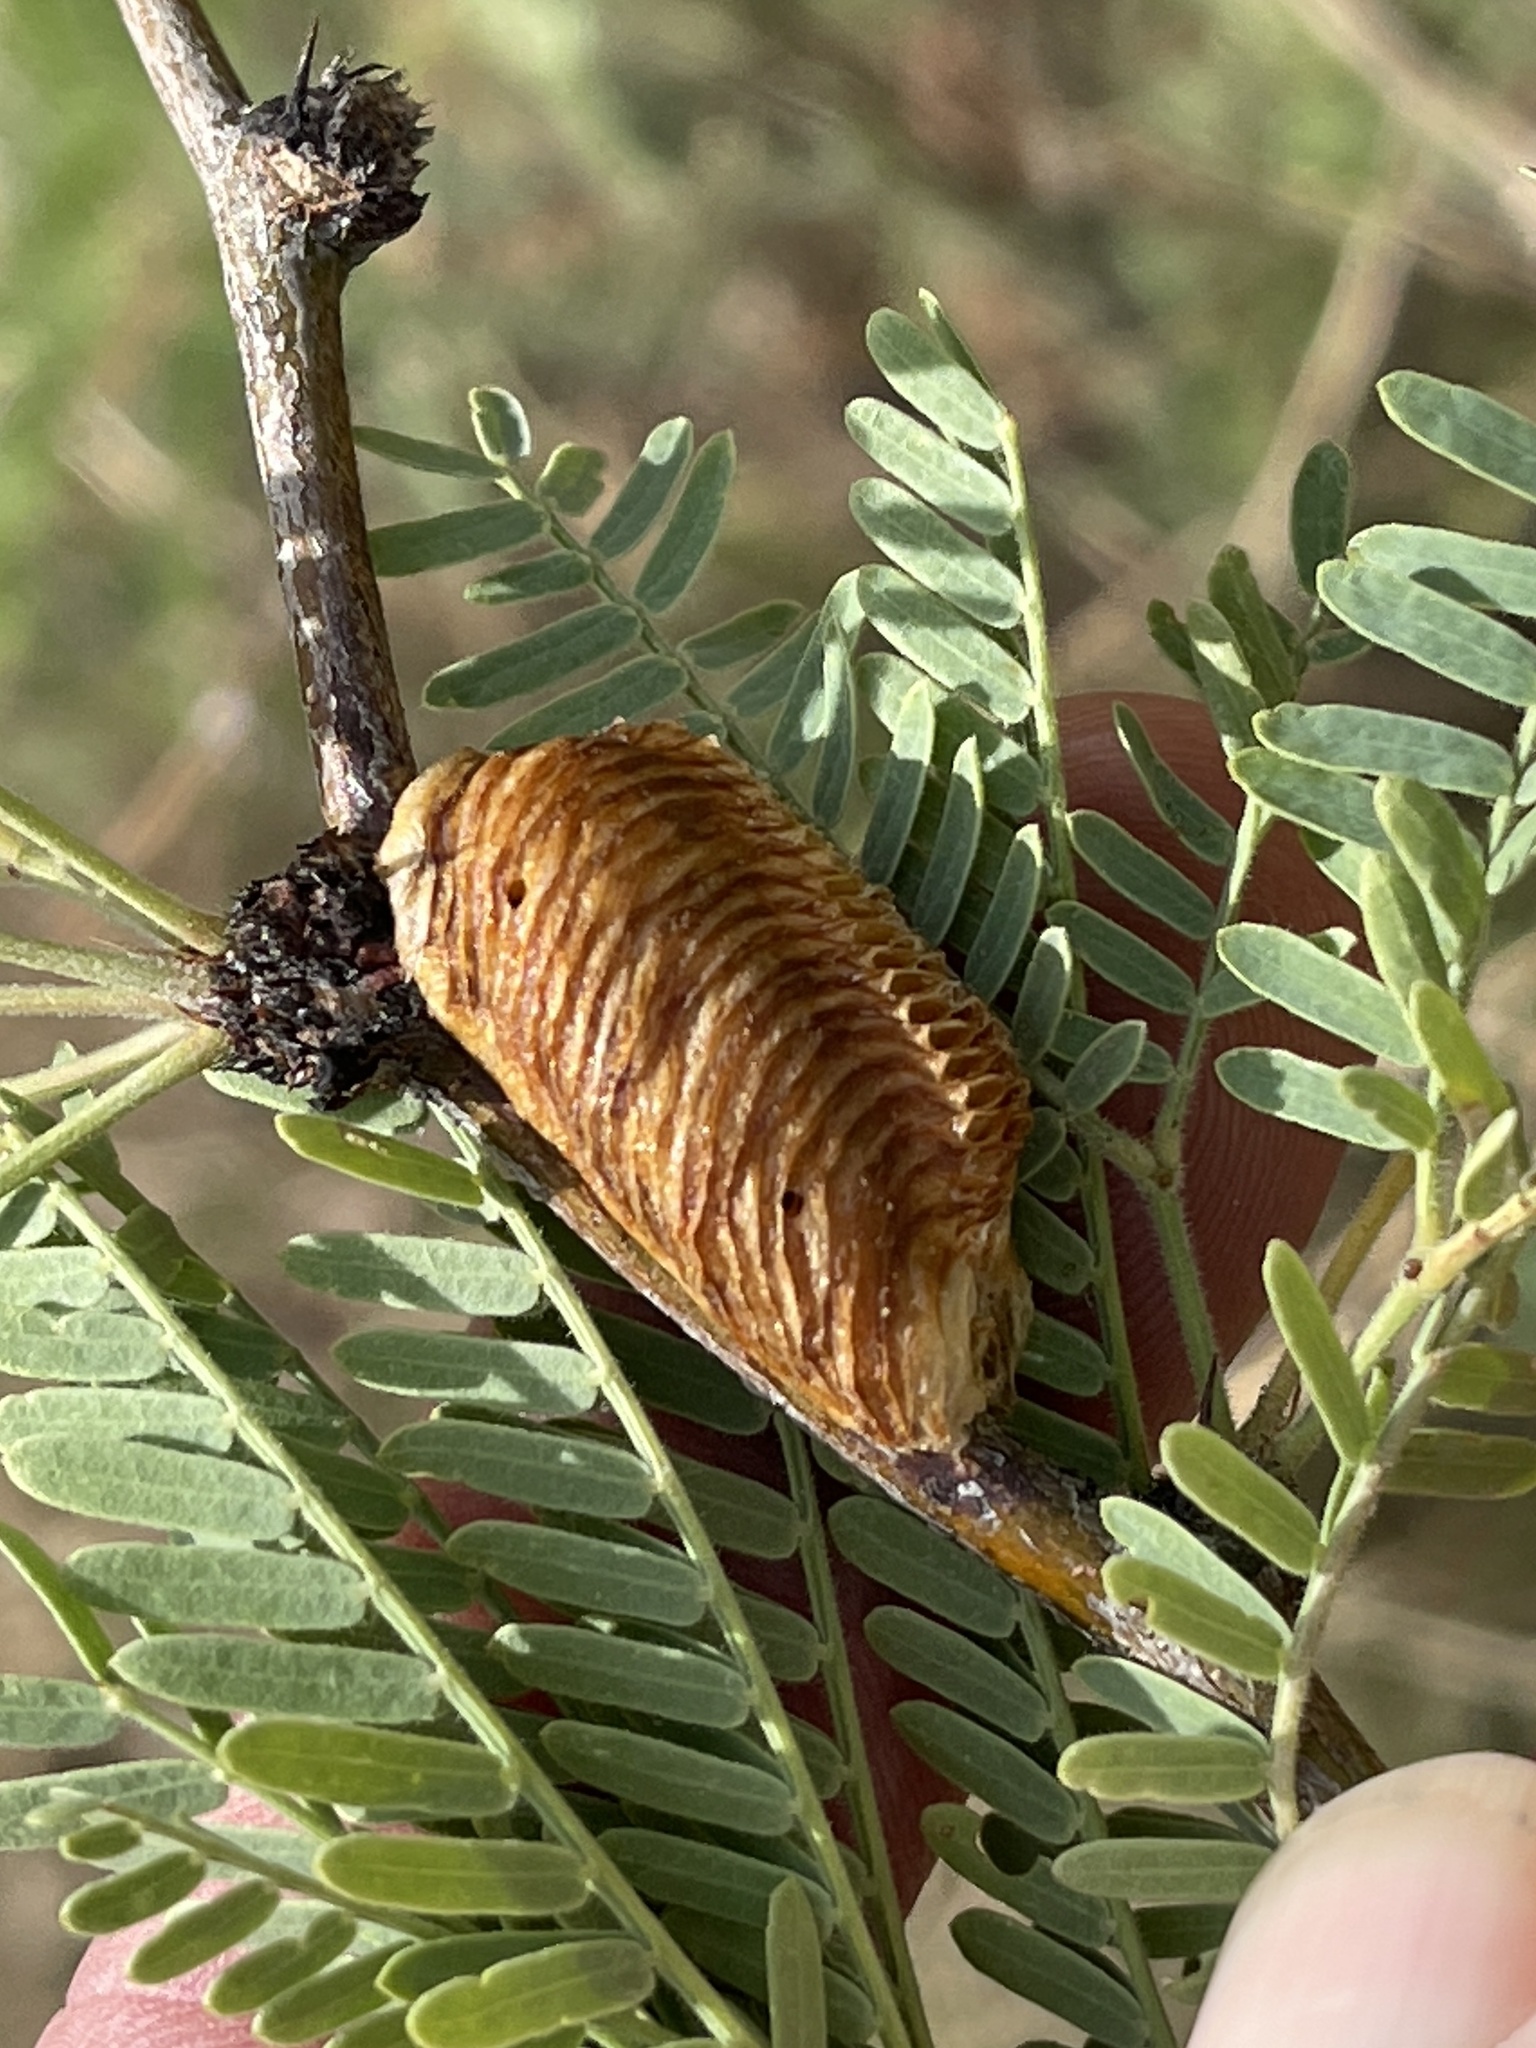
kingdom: Animalia
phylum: Arthropoda
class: Insecta
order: Mantodea
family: Mantidae
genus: Stagmomantis
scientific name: Stagmomantis limbata
